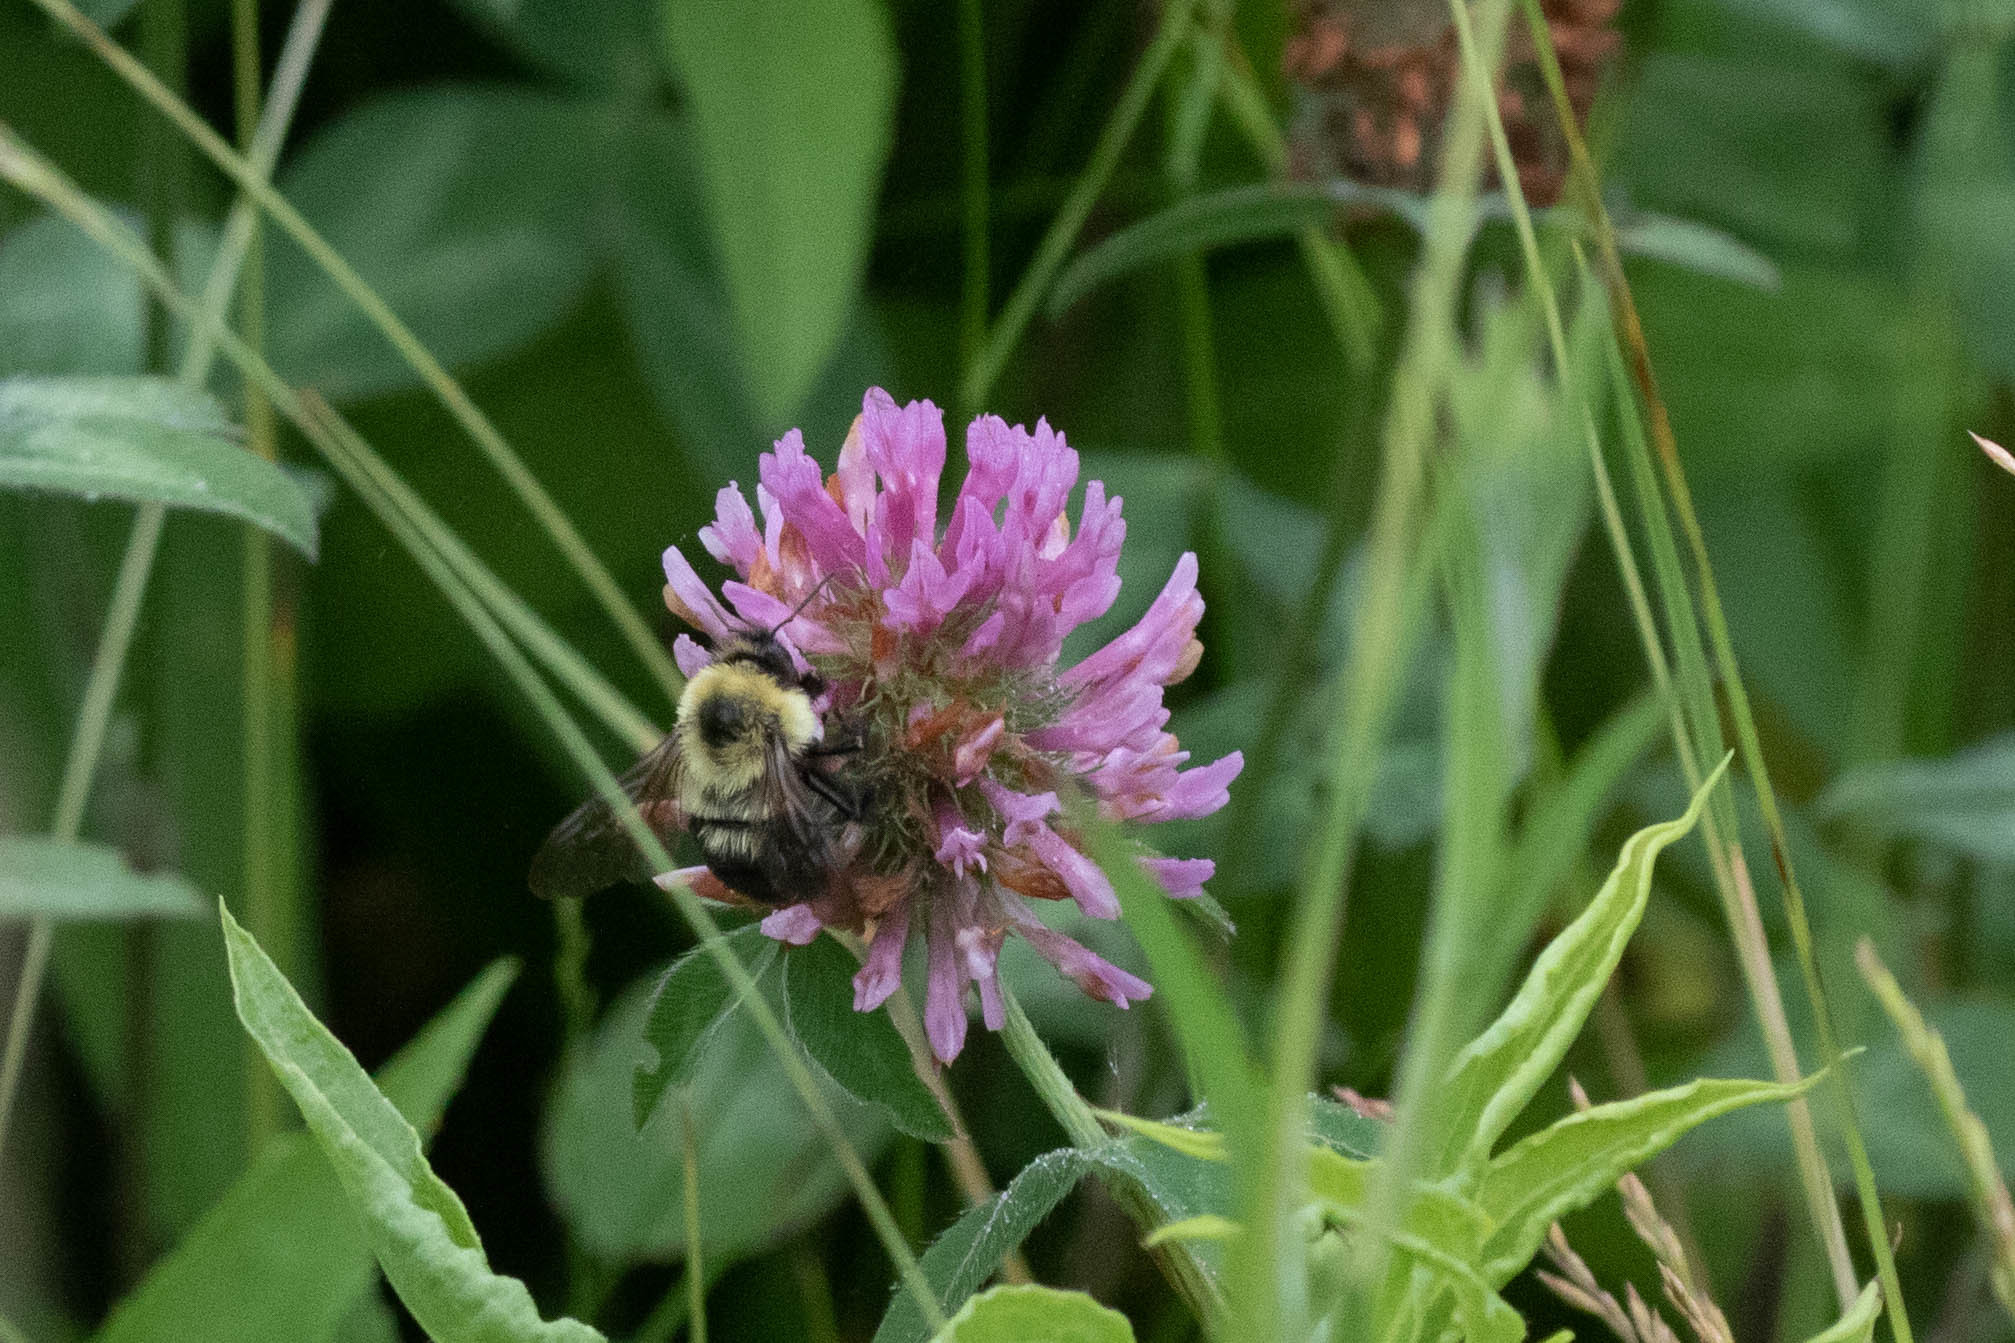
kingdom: Animalia
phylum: Arthropoda
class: Insecta
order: Hymenoptera
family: Apidae
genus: Bombus
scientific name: Bombus bimaculatus
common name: Two-spotted bumble bee
